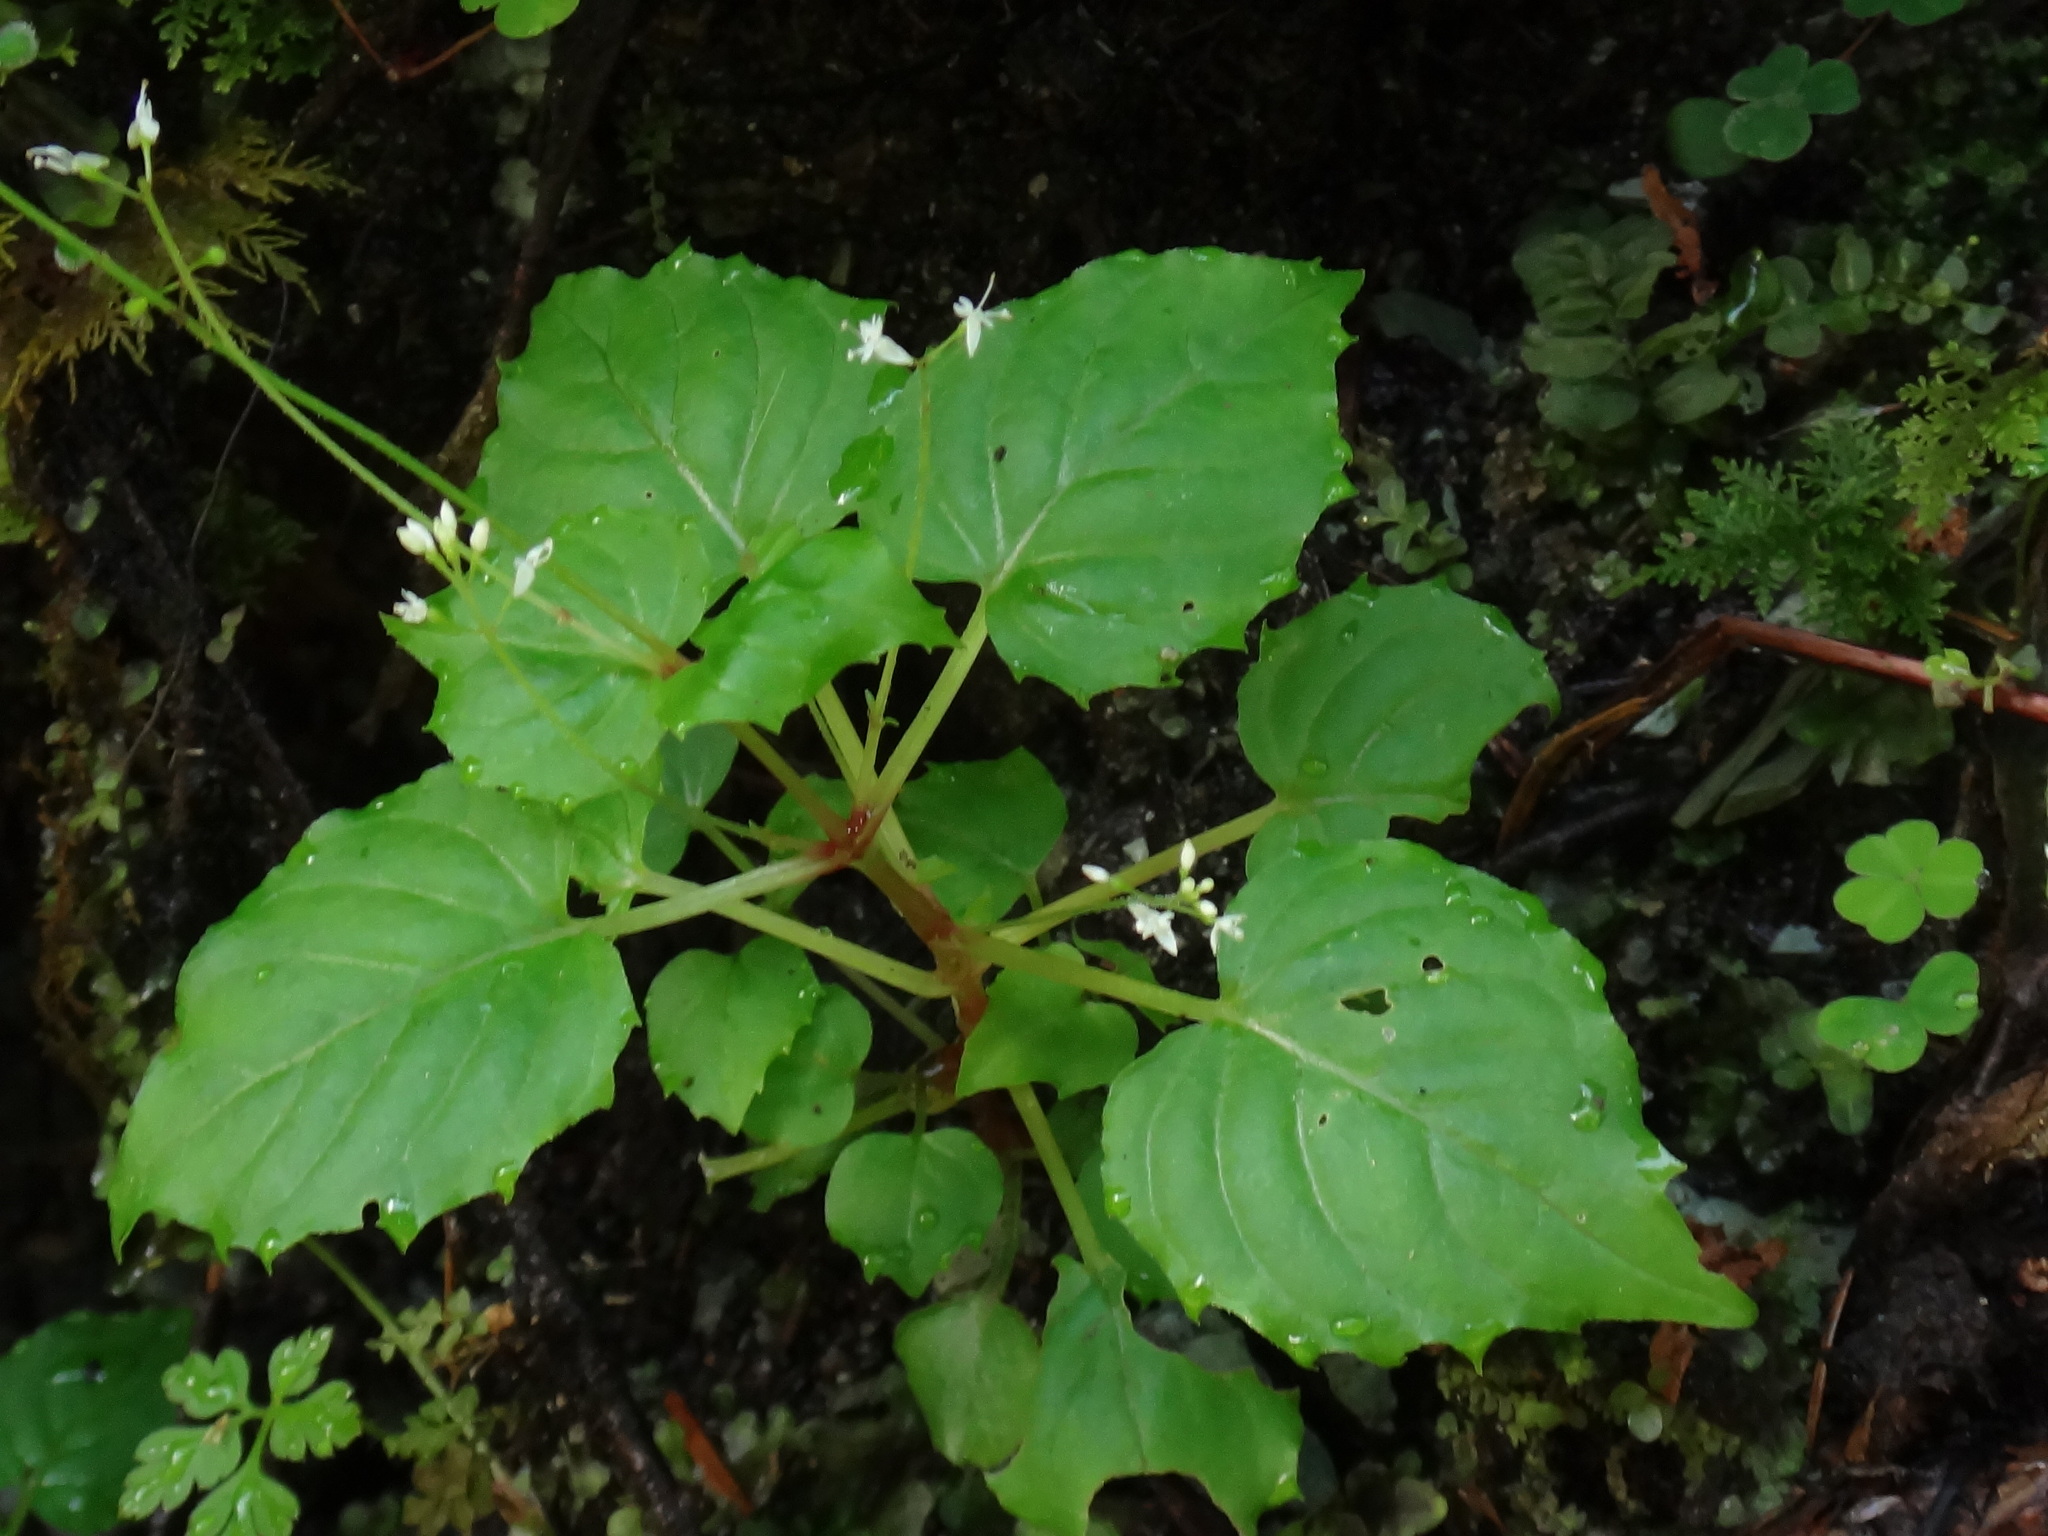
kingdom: Plantae
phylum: Tracheophyta
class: Magnoliopsida
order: Myrtales
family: Onagraceae
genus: Circaea
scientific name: Circaea alpina
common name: Alpine enchanter's-nightshade
